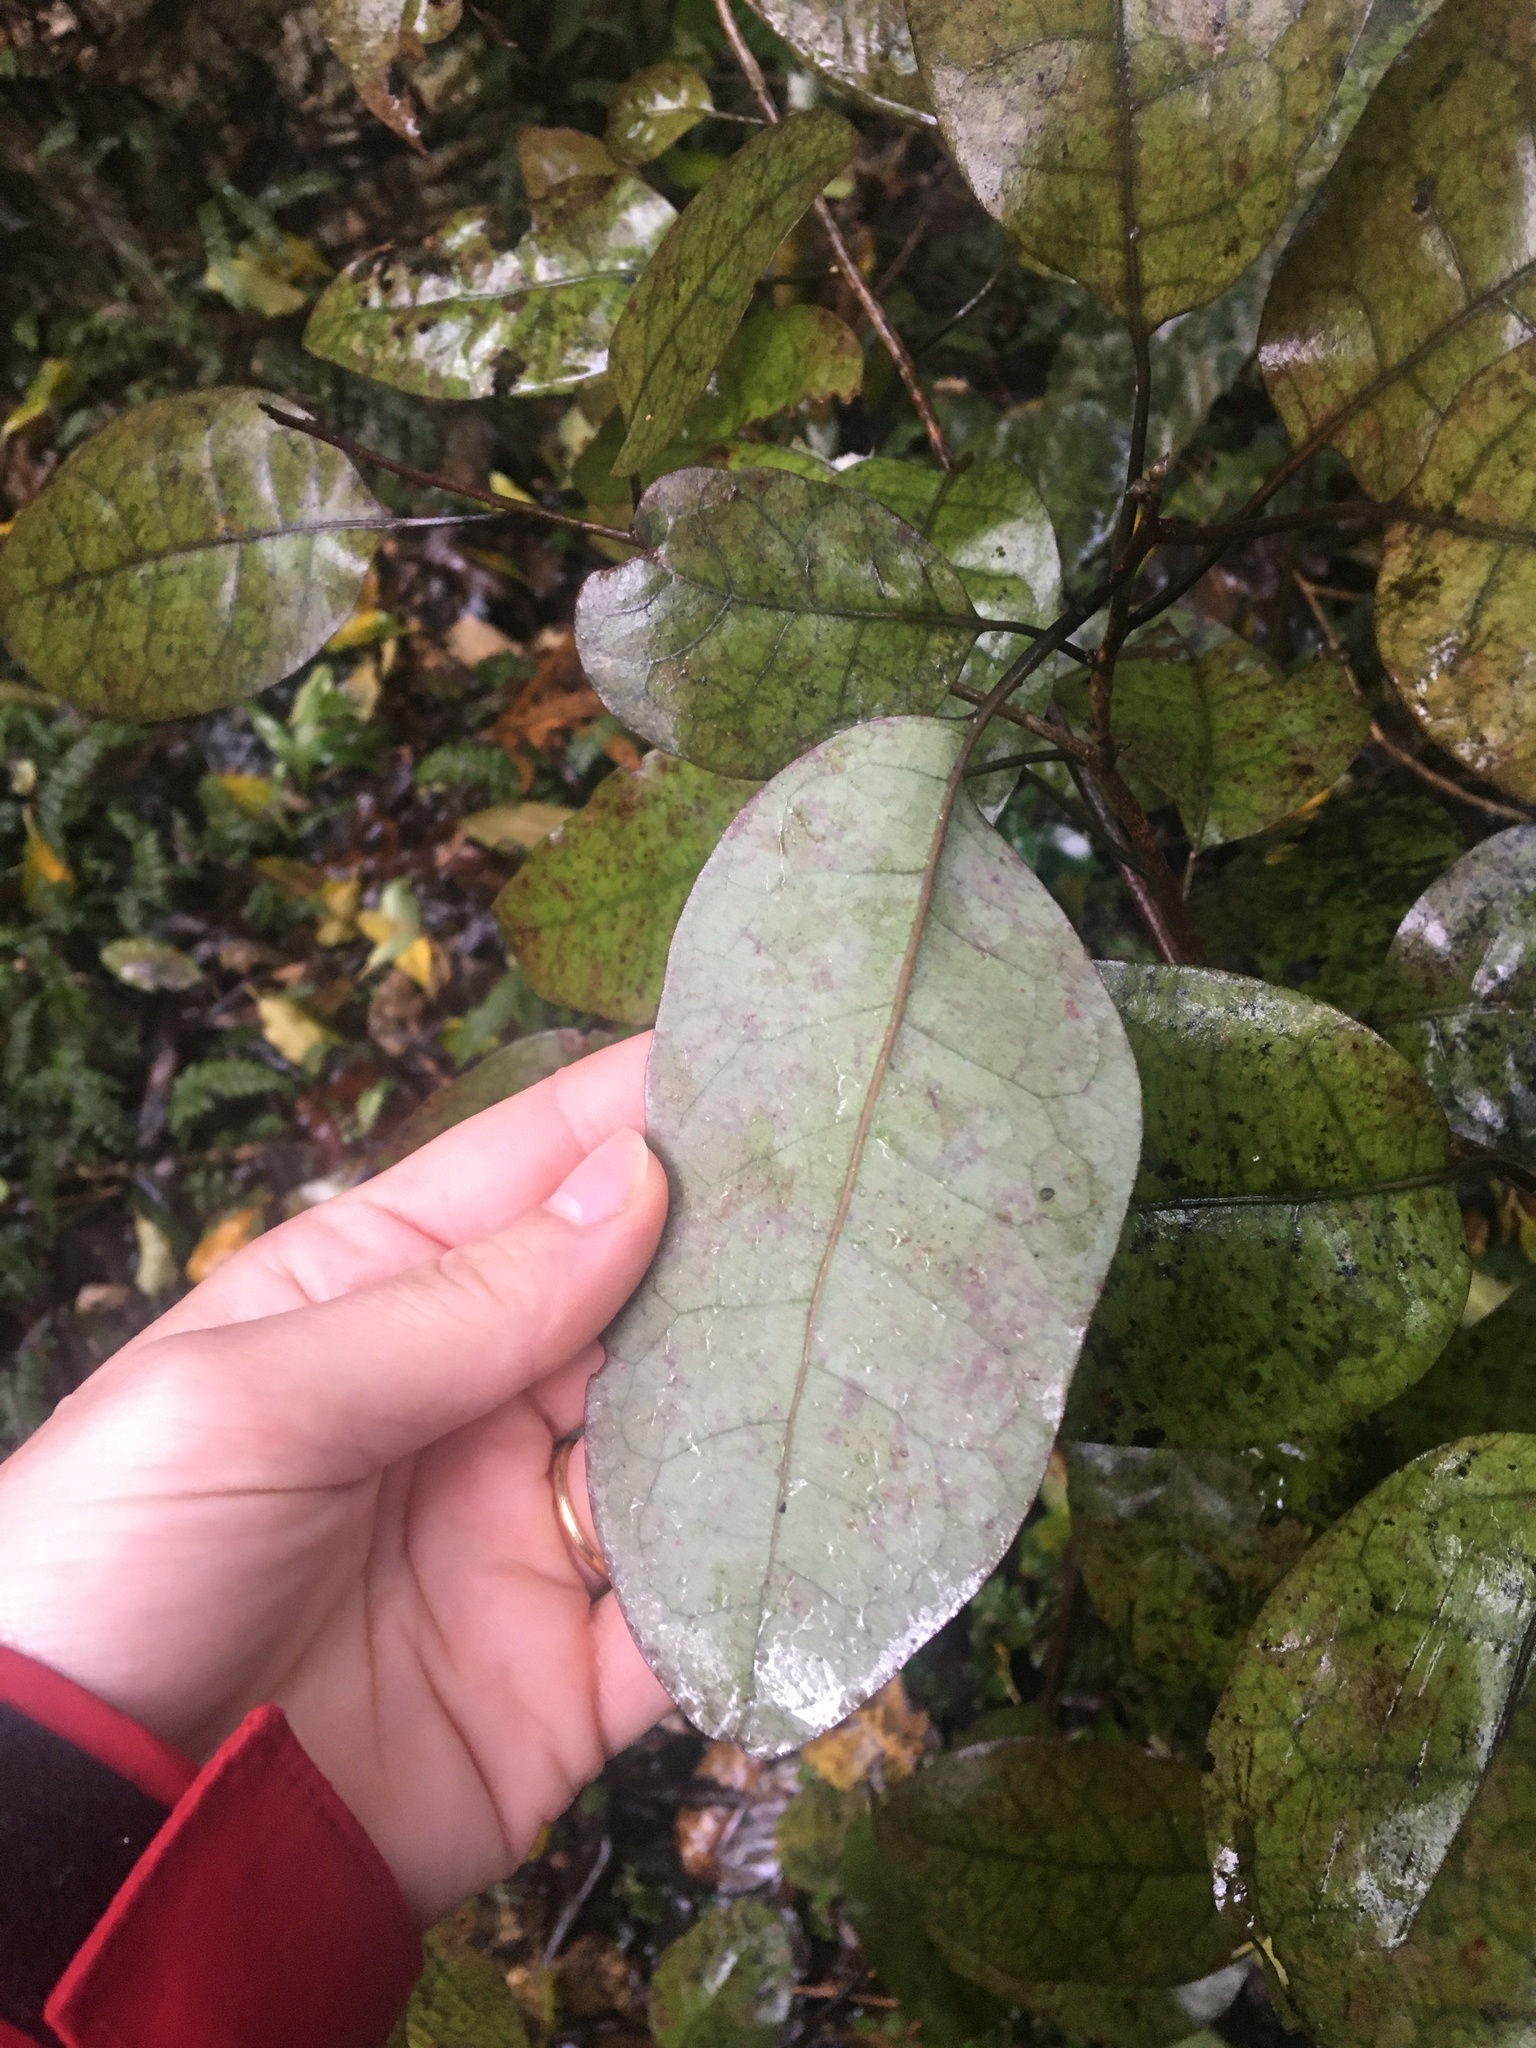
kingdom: Plantae
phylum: Tracheophyta
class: Magnoliopsida
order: Laurales
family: Lauraceae
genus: Litsea
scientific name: Litsea calicaris
